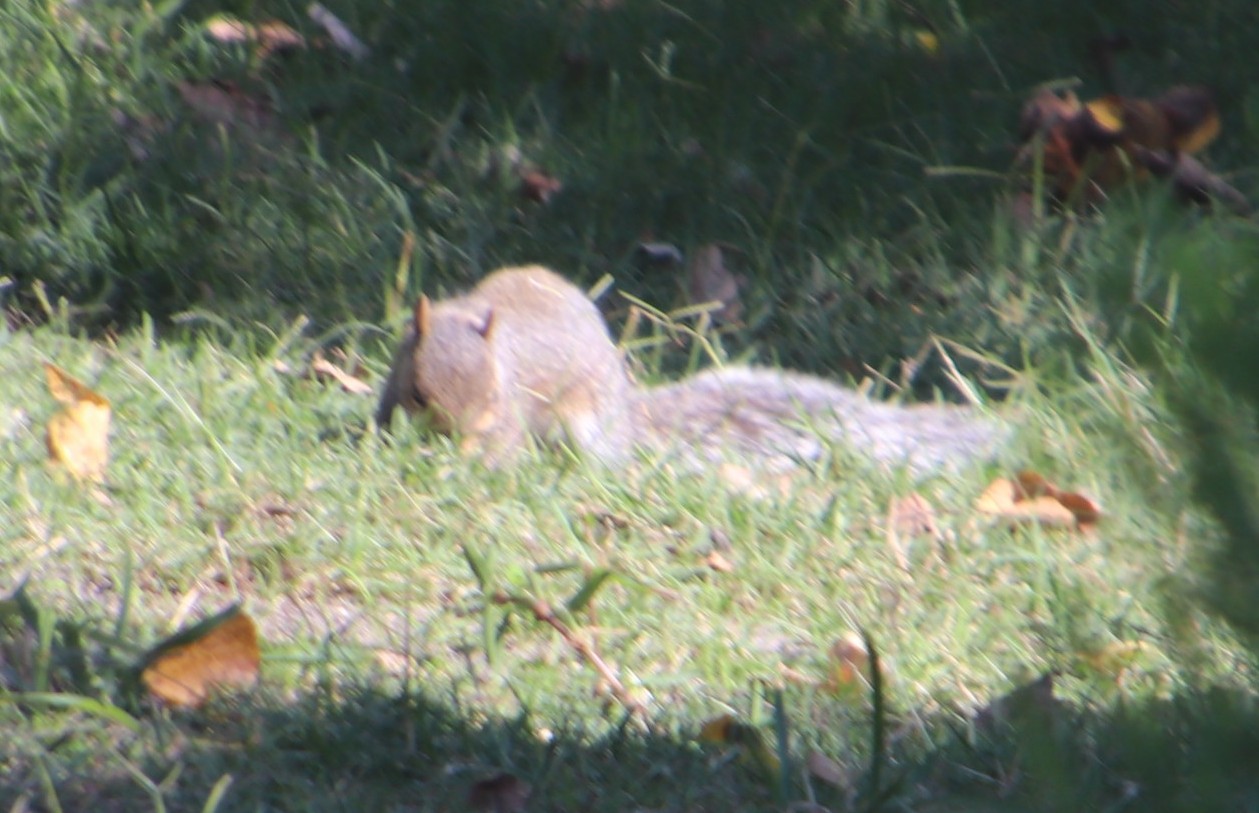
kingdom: Animalia
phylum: Chordata
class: Mammalia
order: Rodentia
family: Sciuridae
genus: Sciurus
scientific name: Sciurus carolinensis
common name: Eastern gray squirrel
